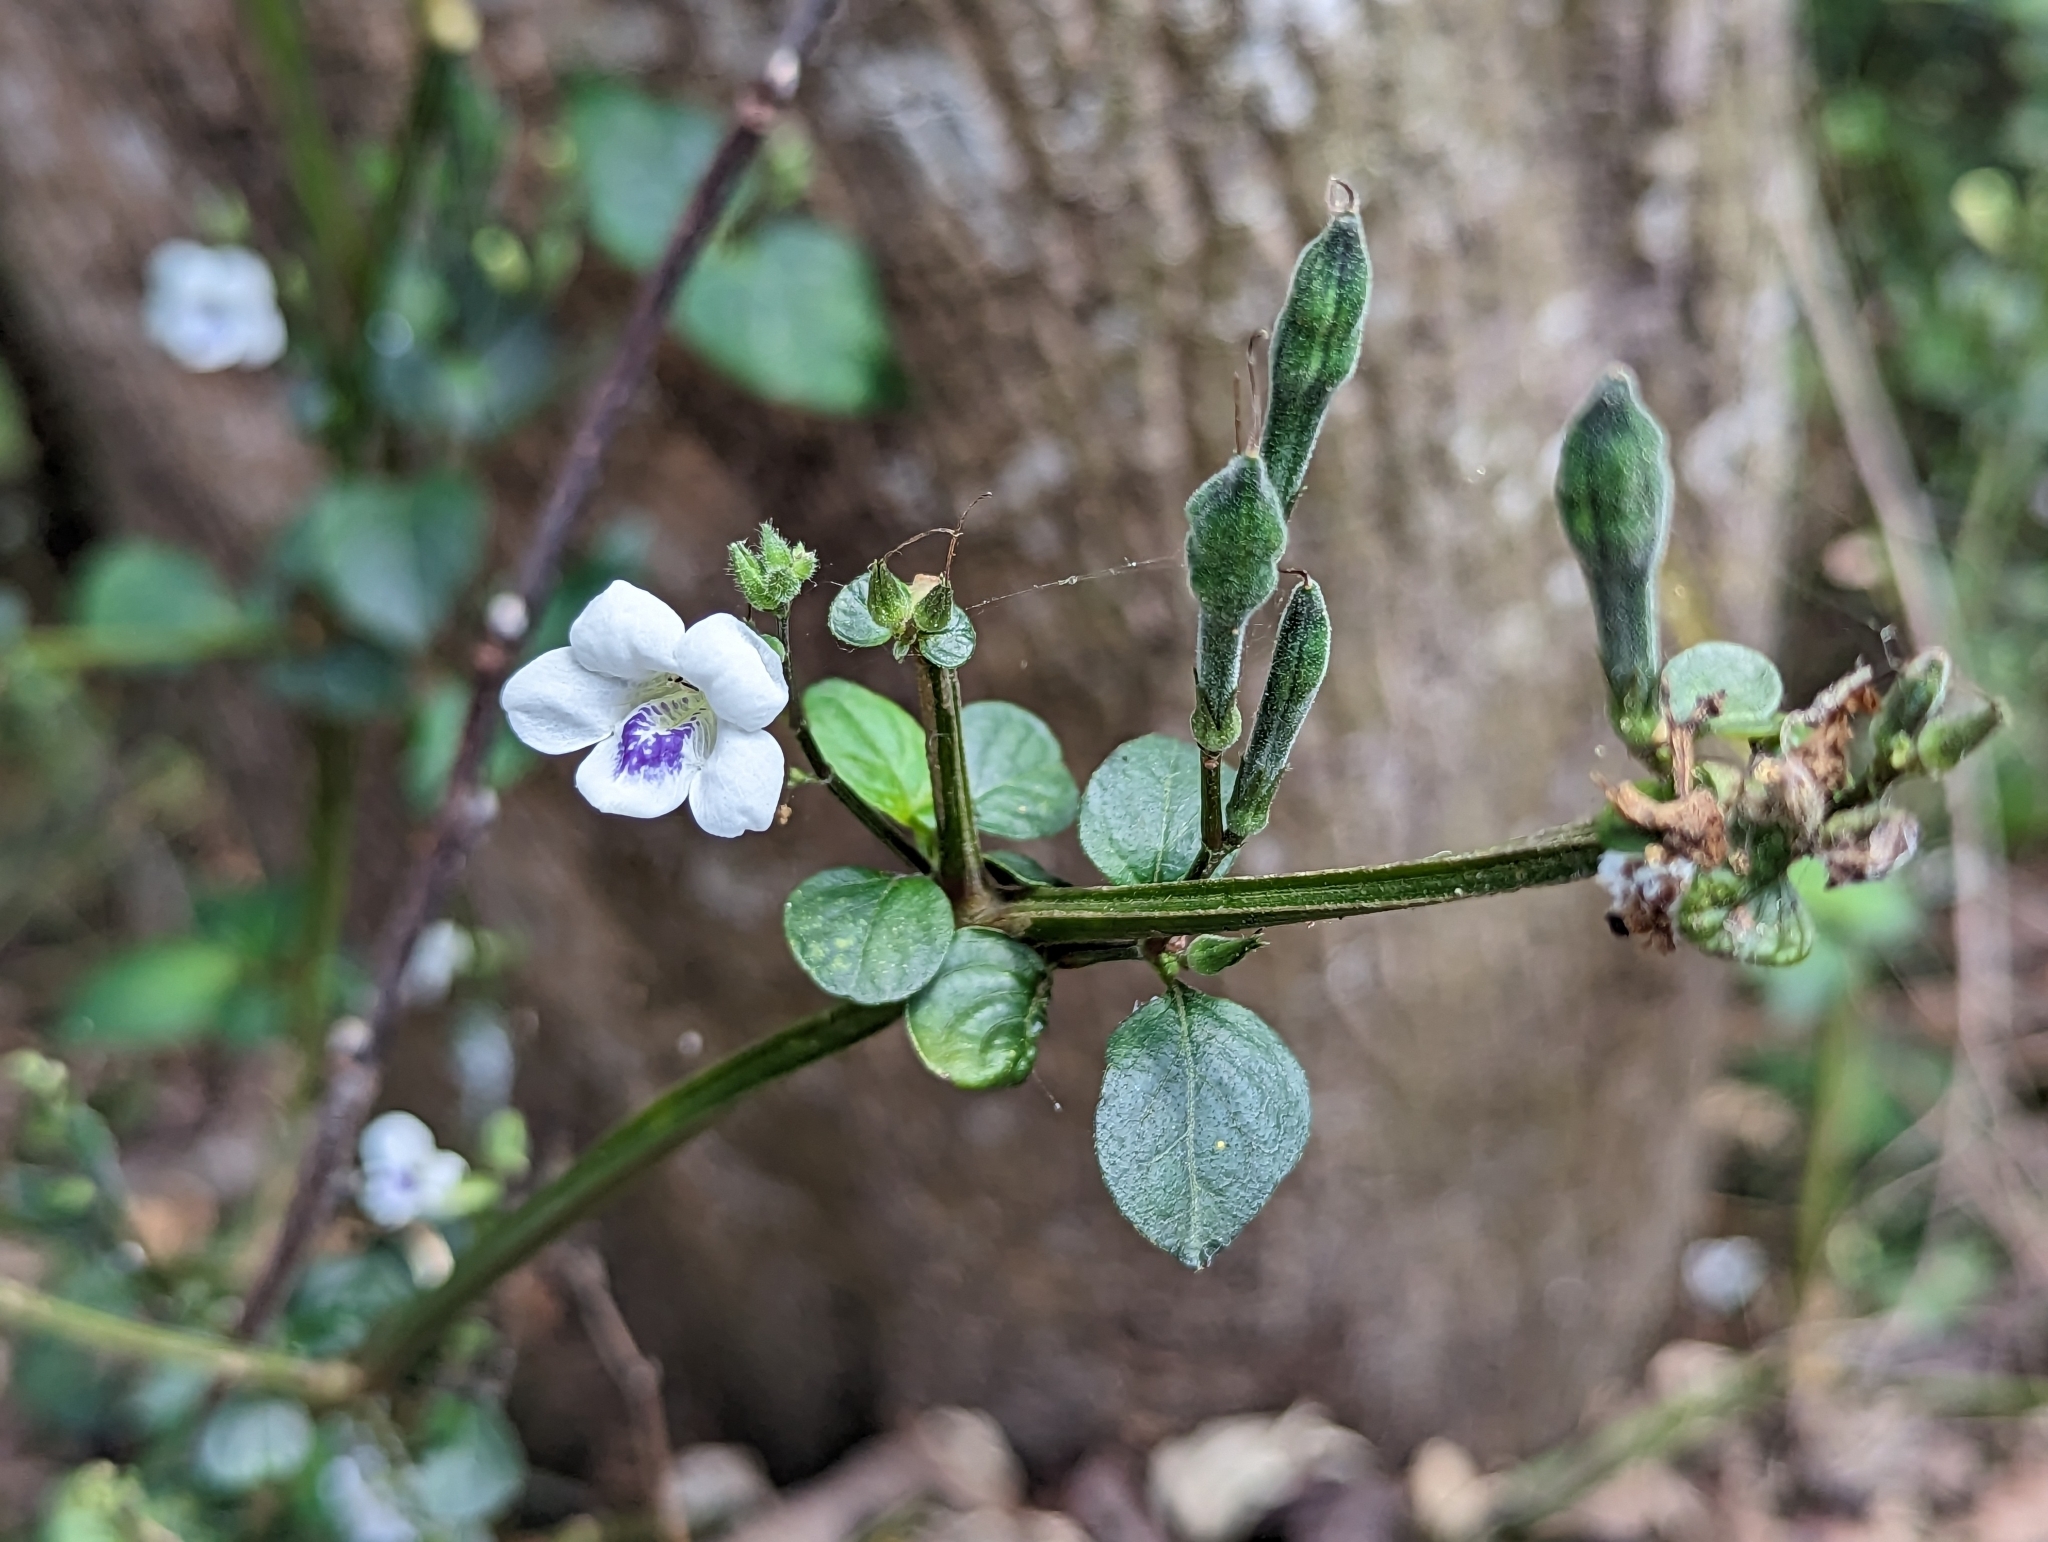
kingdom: Plantae
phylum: Tracheophyta
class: Magnoliopsida
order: Lamiales
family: Acanthaceae
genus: Asystasia
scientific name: Asystasia intrusa
